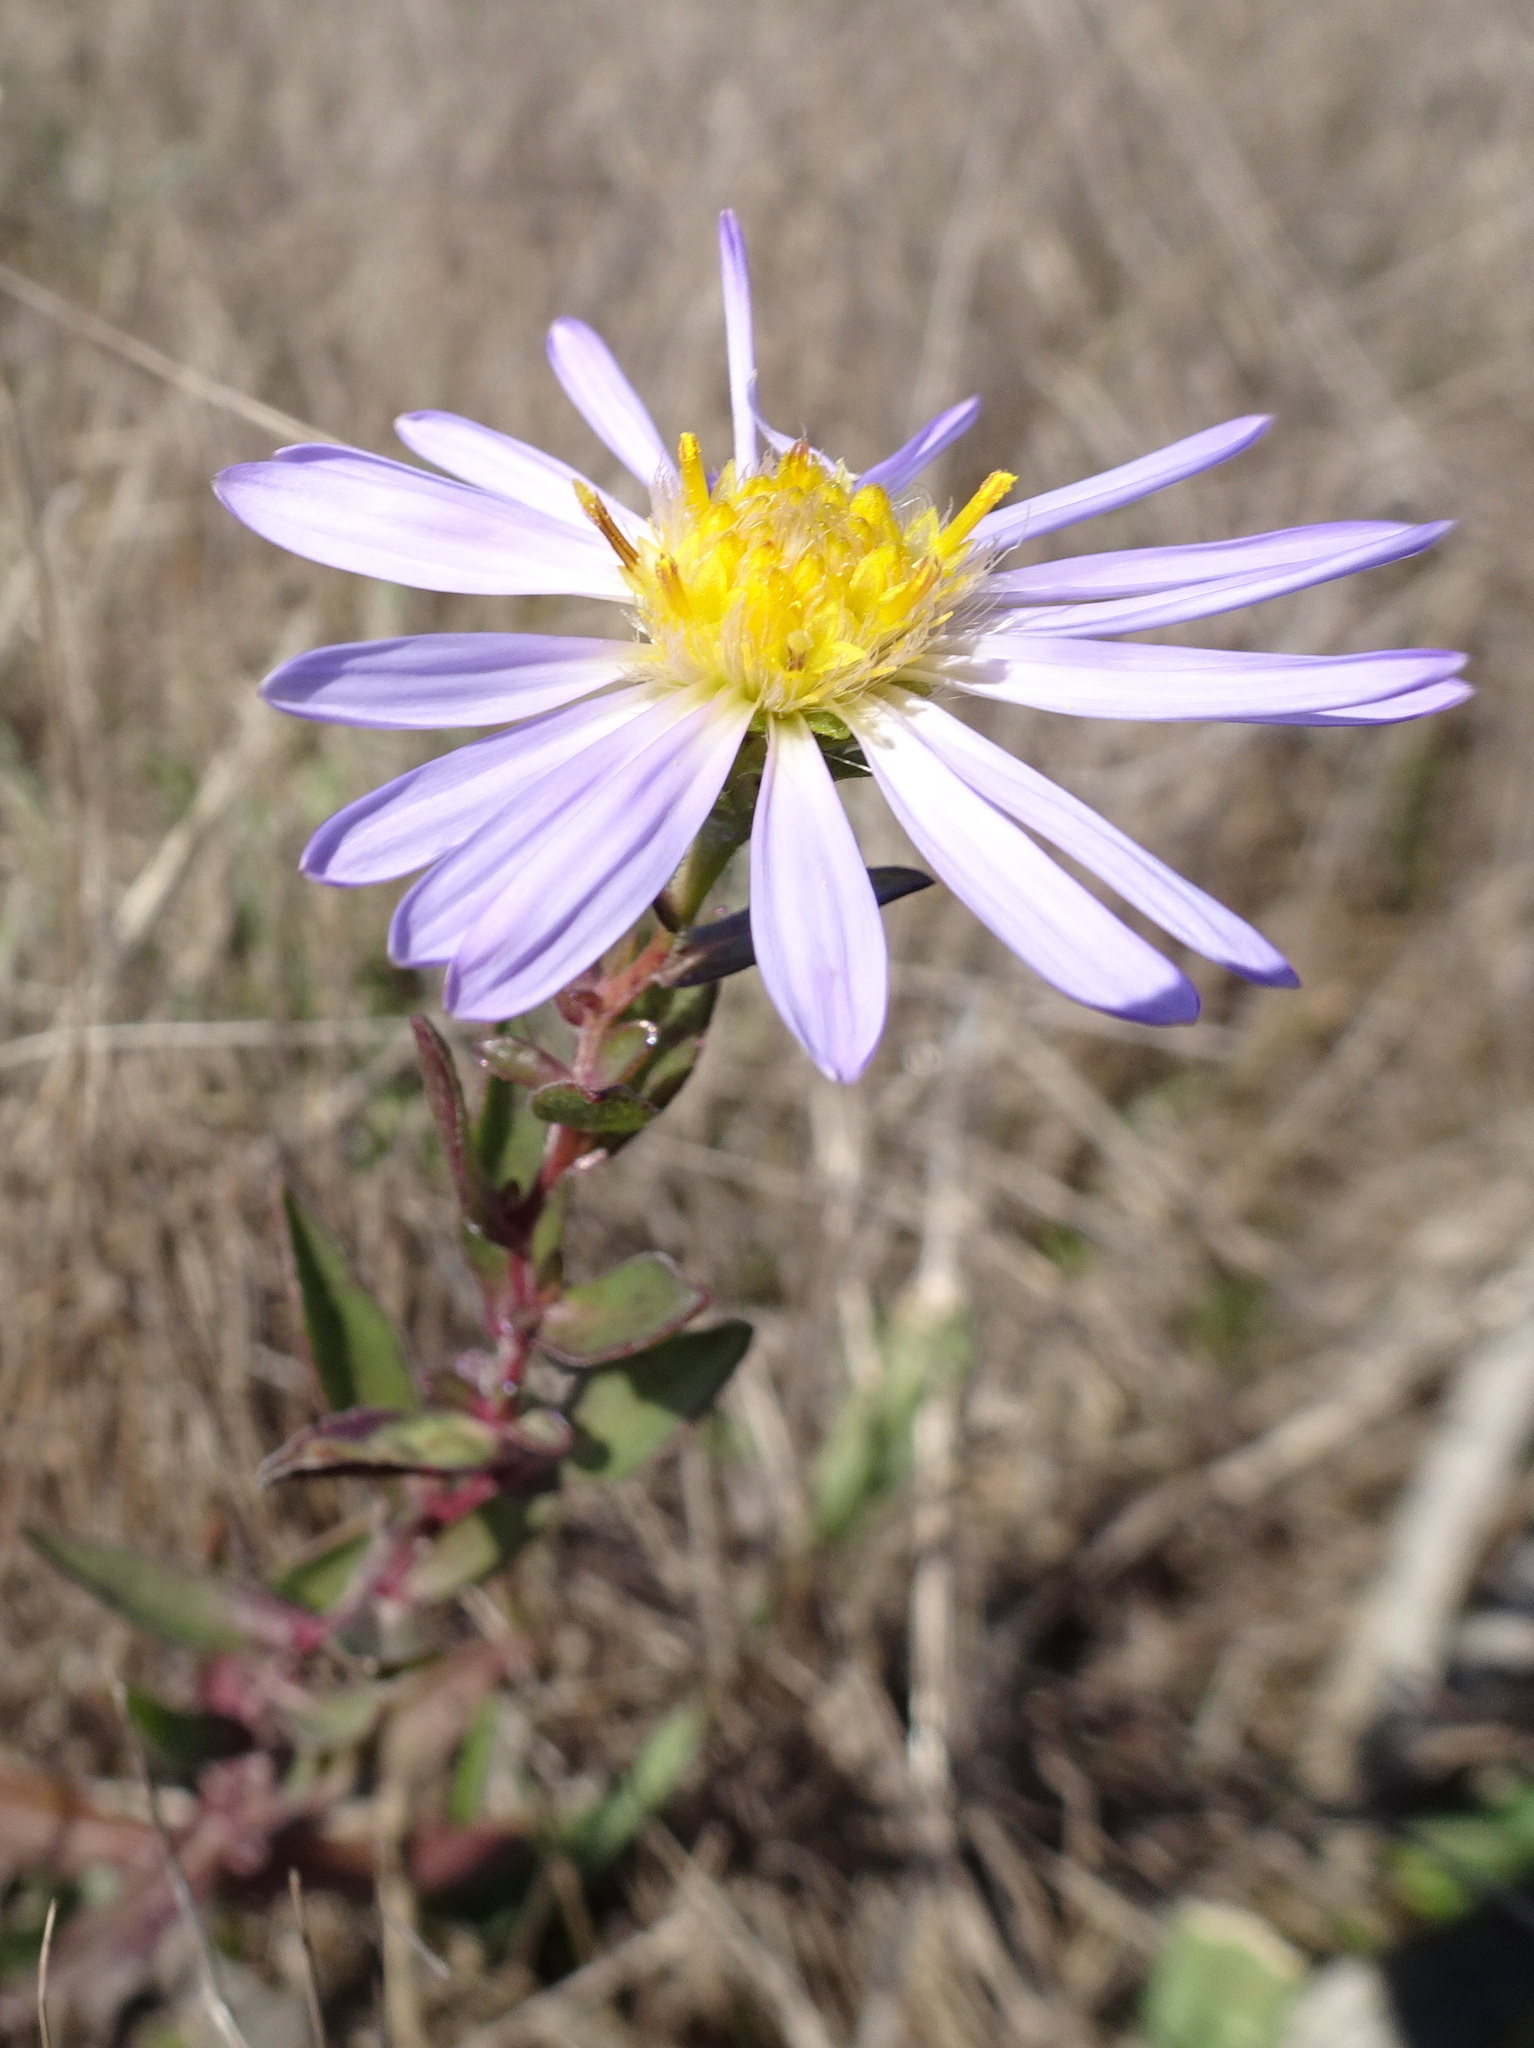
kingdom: Plantae
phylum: Tracheophyta
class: Magnoliopsida
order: Asterales
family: Asteraceae
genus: Symphyotrichum
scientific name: Symphyotrichum chilense
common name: Pacific aster
